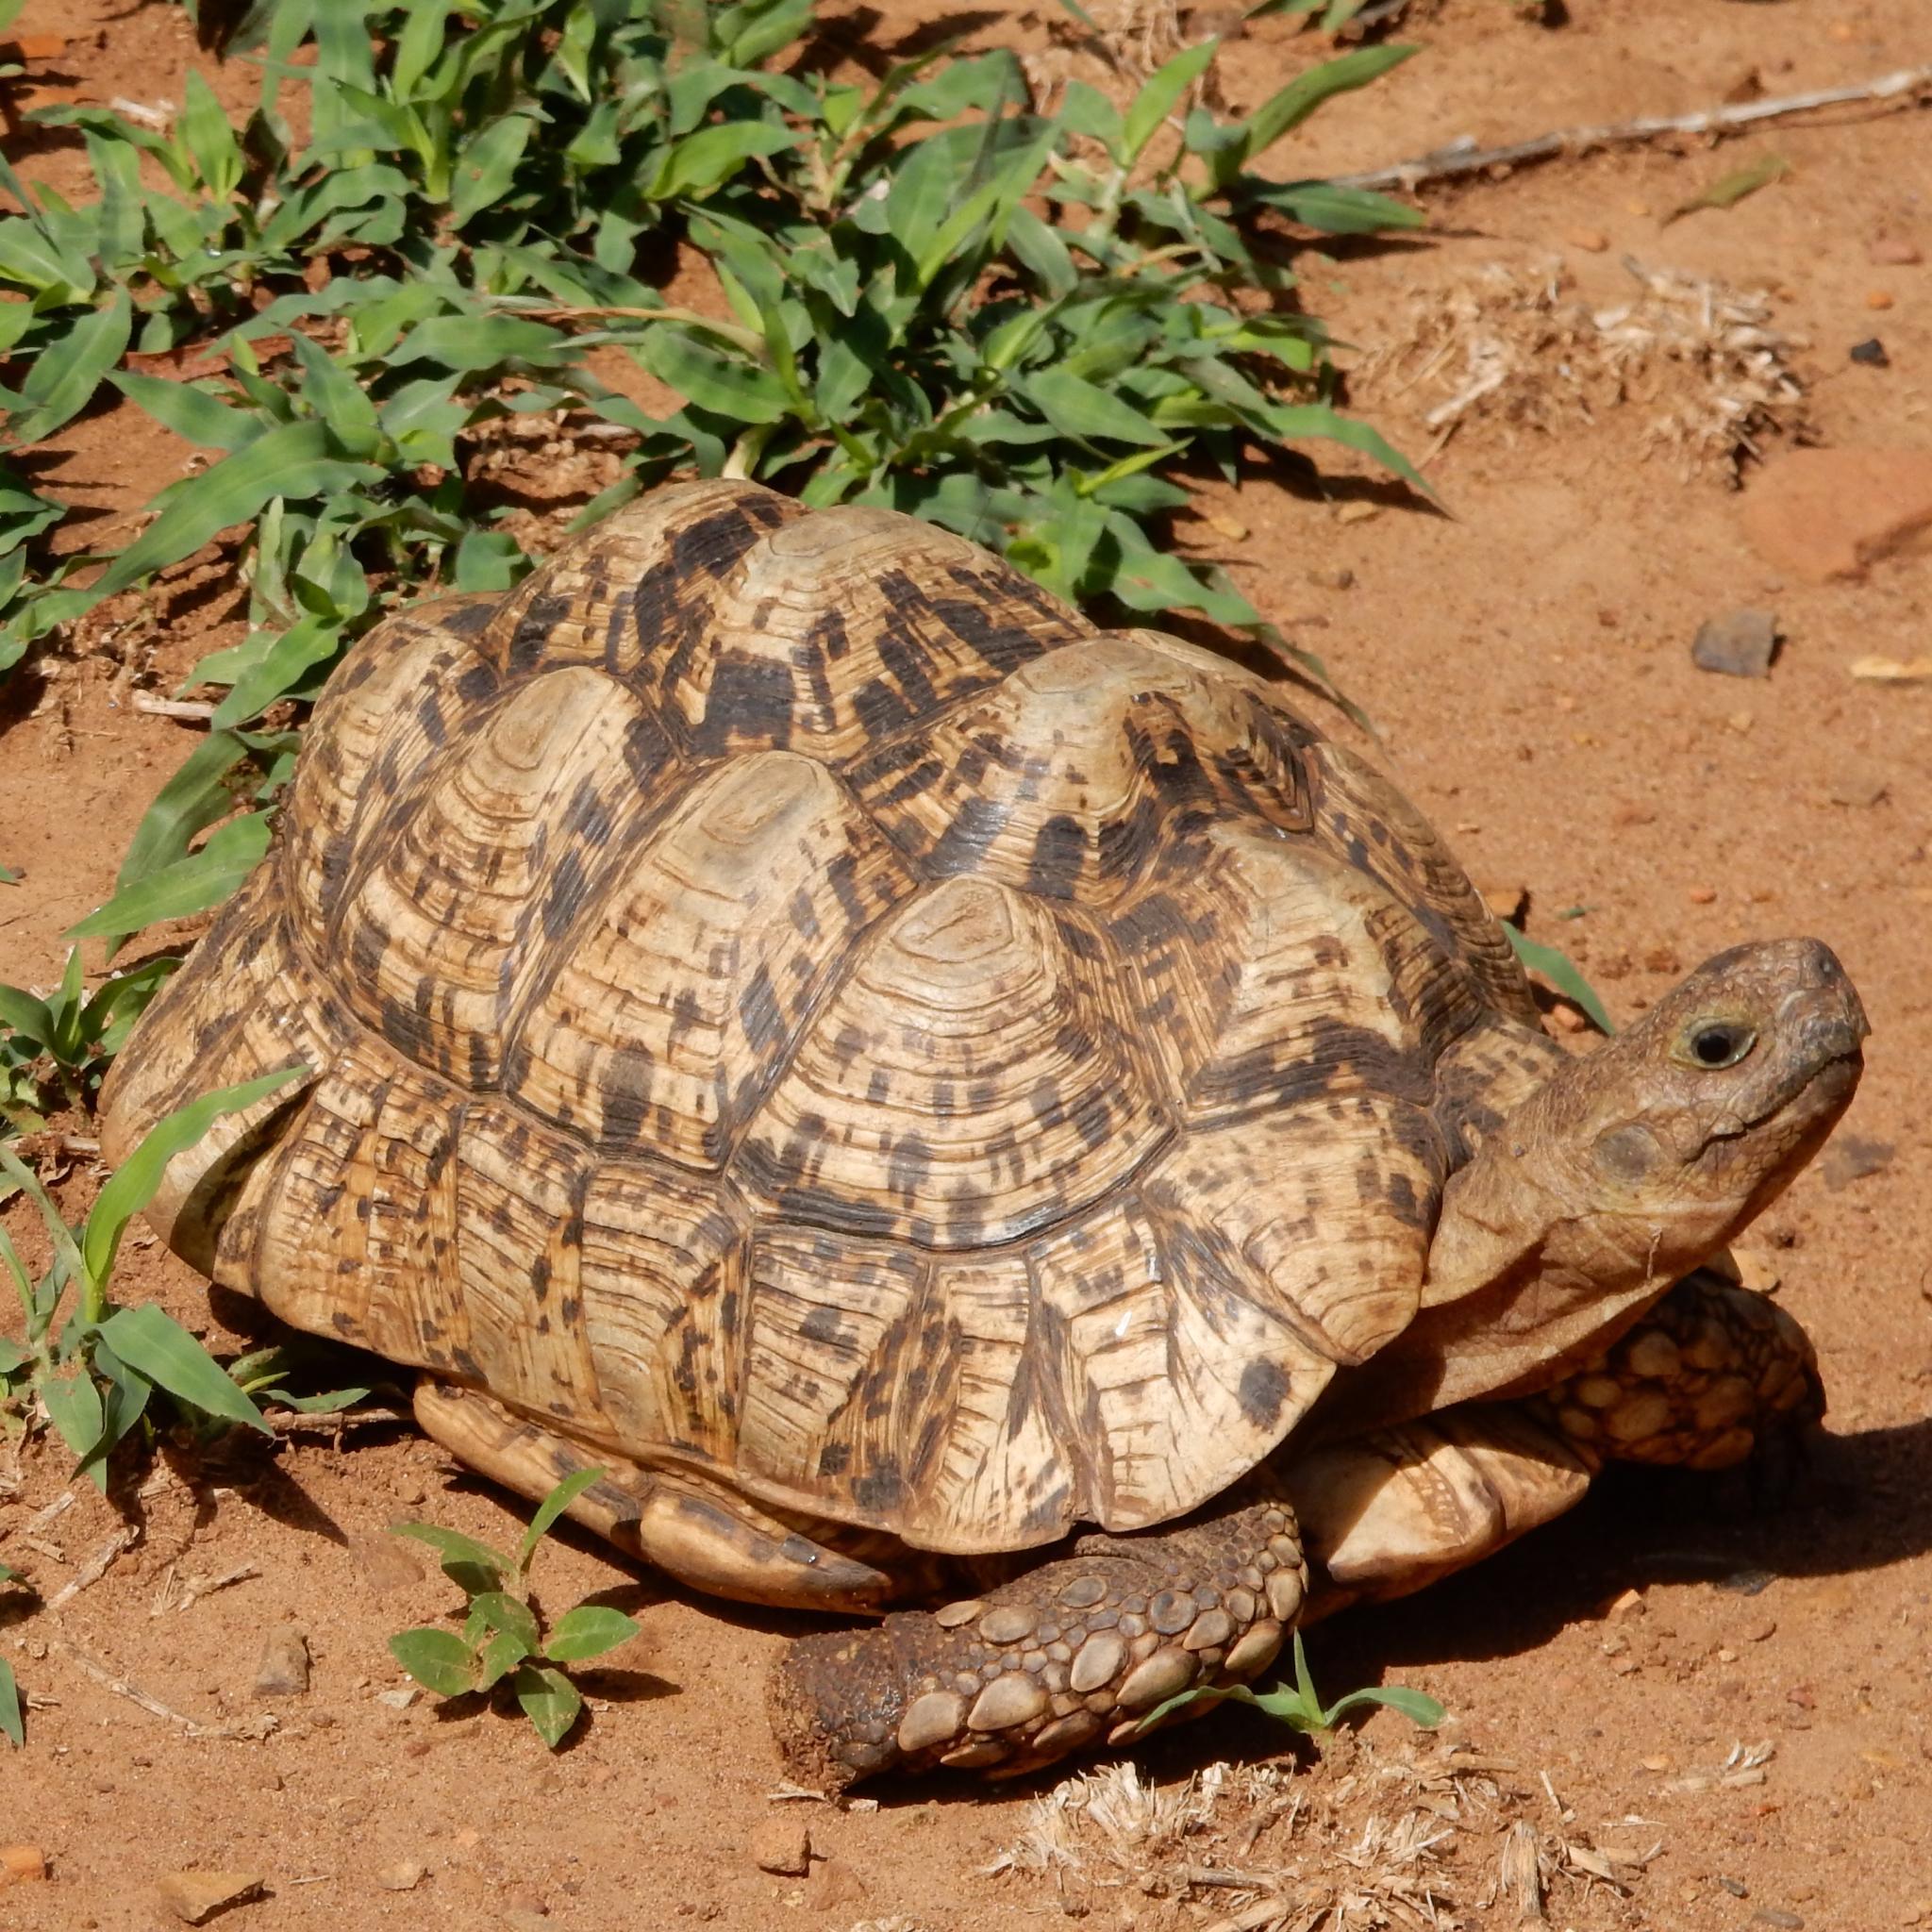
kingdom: Animalia
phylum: Chordata
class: Testudines
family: Testudinidae
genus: Stigmochelys
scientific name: Stigmochelys pardalis
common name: Leopard tortoise
